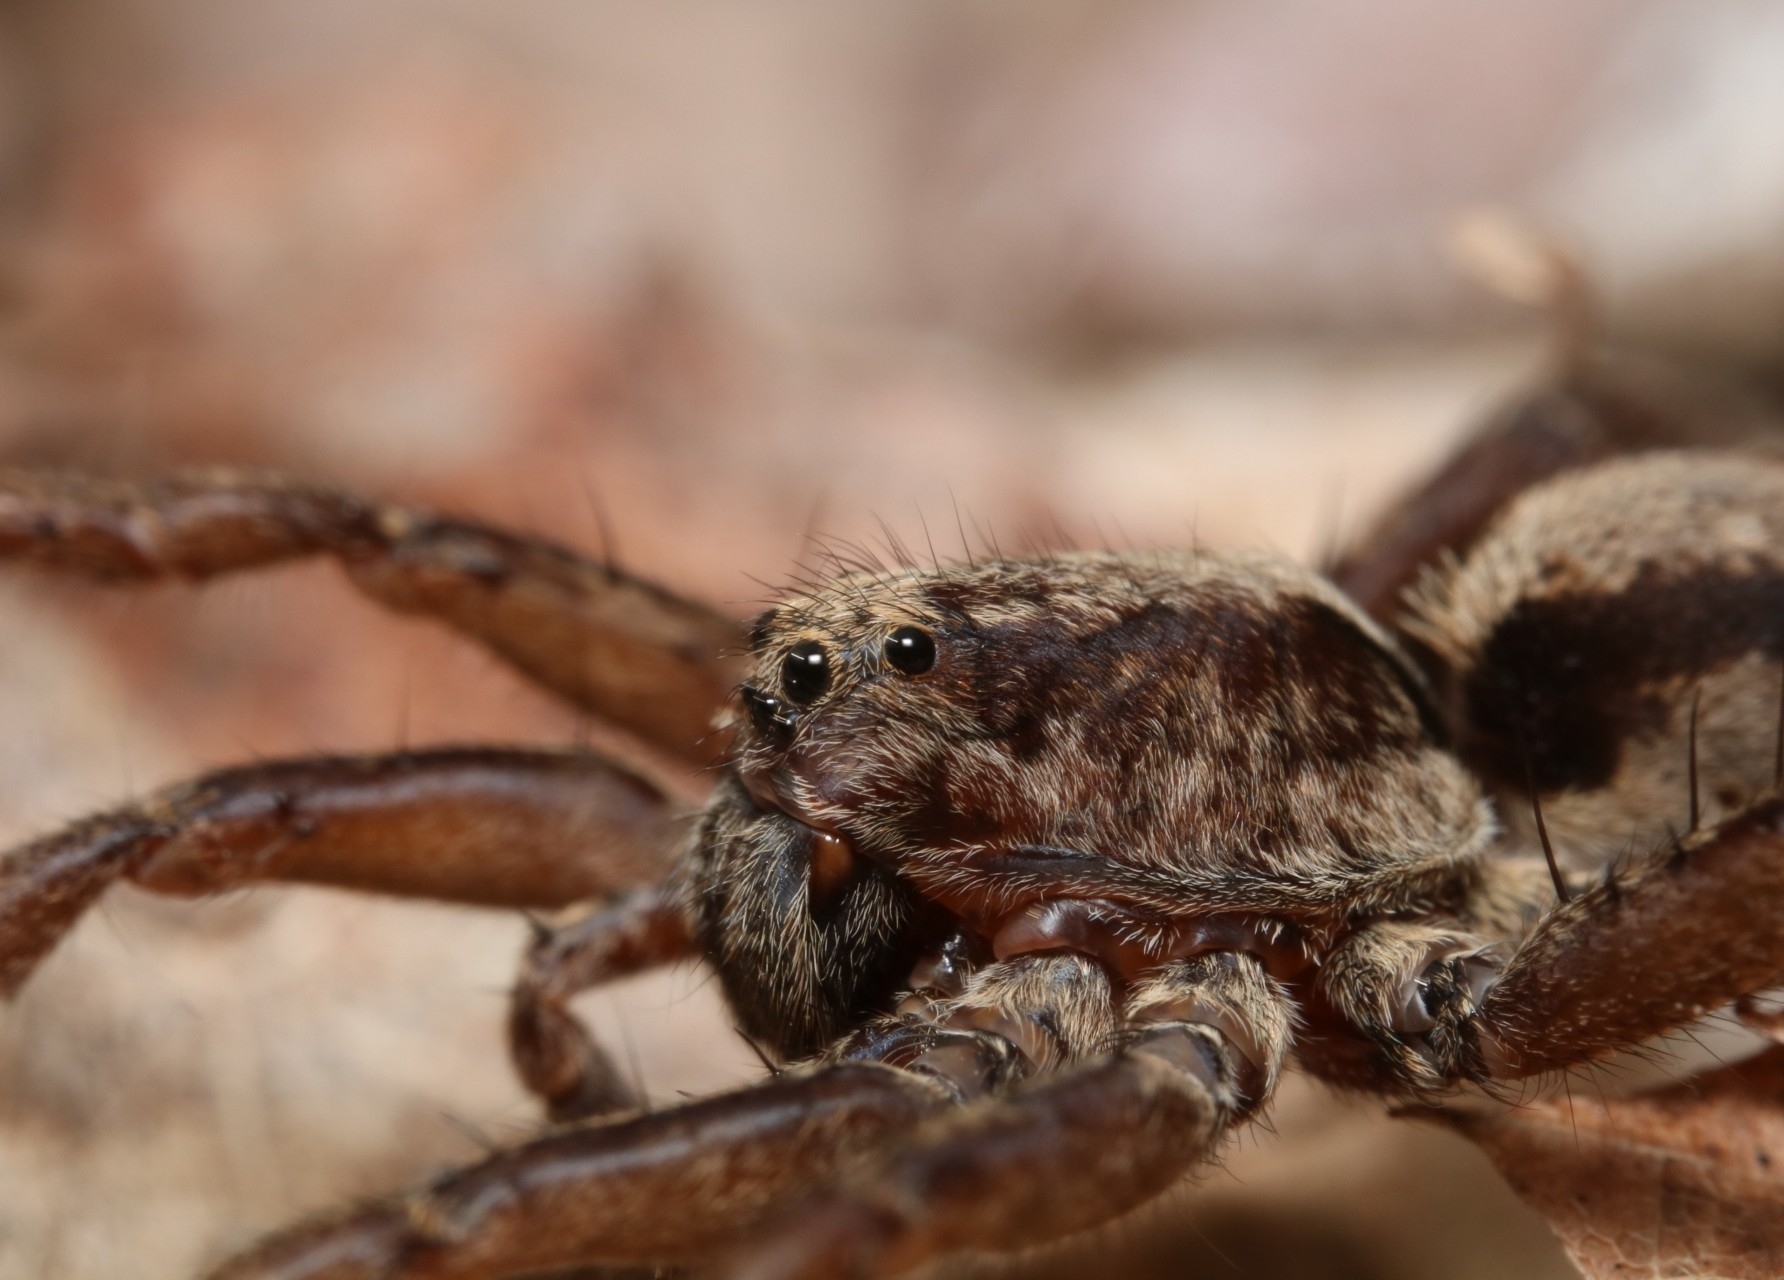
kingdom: Animalia
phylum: Arthropoda
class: Arachnida
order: Araneae
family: Lycosidae
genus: Gladicosa
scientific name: Gladicosa gulosa
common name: Drumming sword wolf spider
